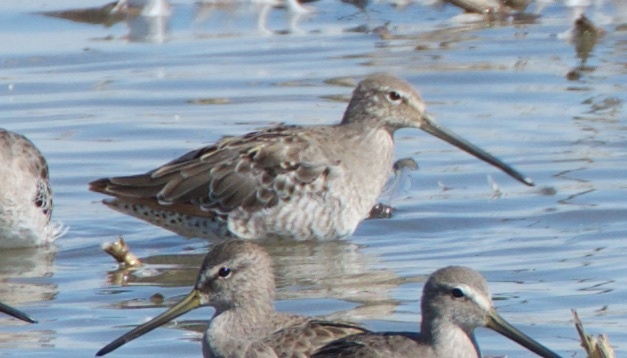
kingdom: Animalia
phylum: Chordata
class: Aves
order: Charadriiformes
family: Scolopacidae
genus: Limnodromus
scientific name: Limnodromus scolopaceus
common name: Long-billed dowitcher
